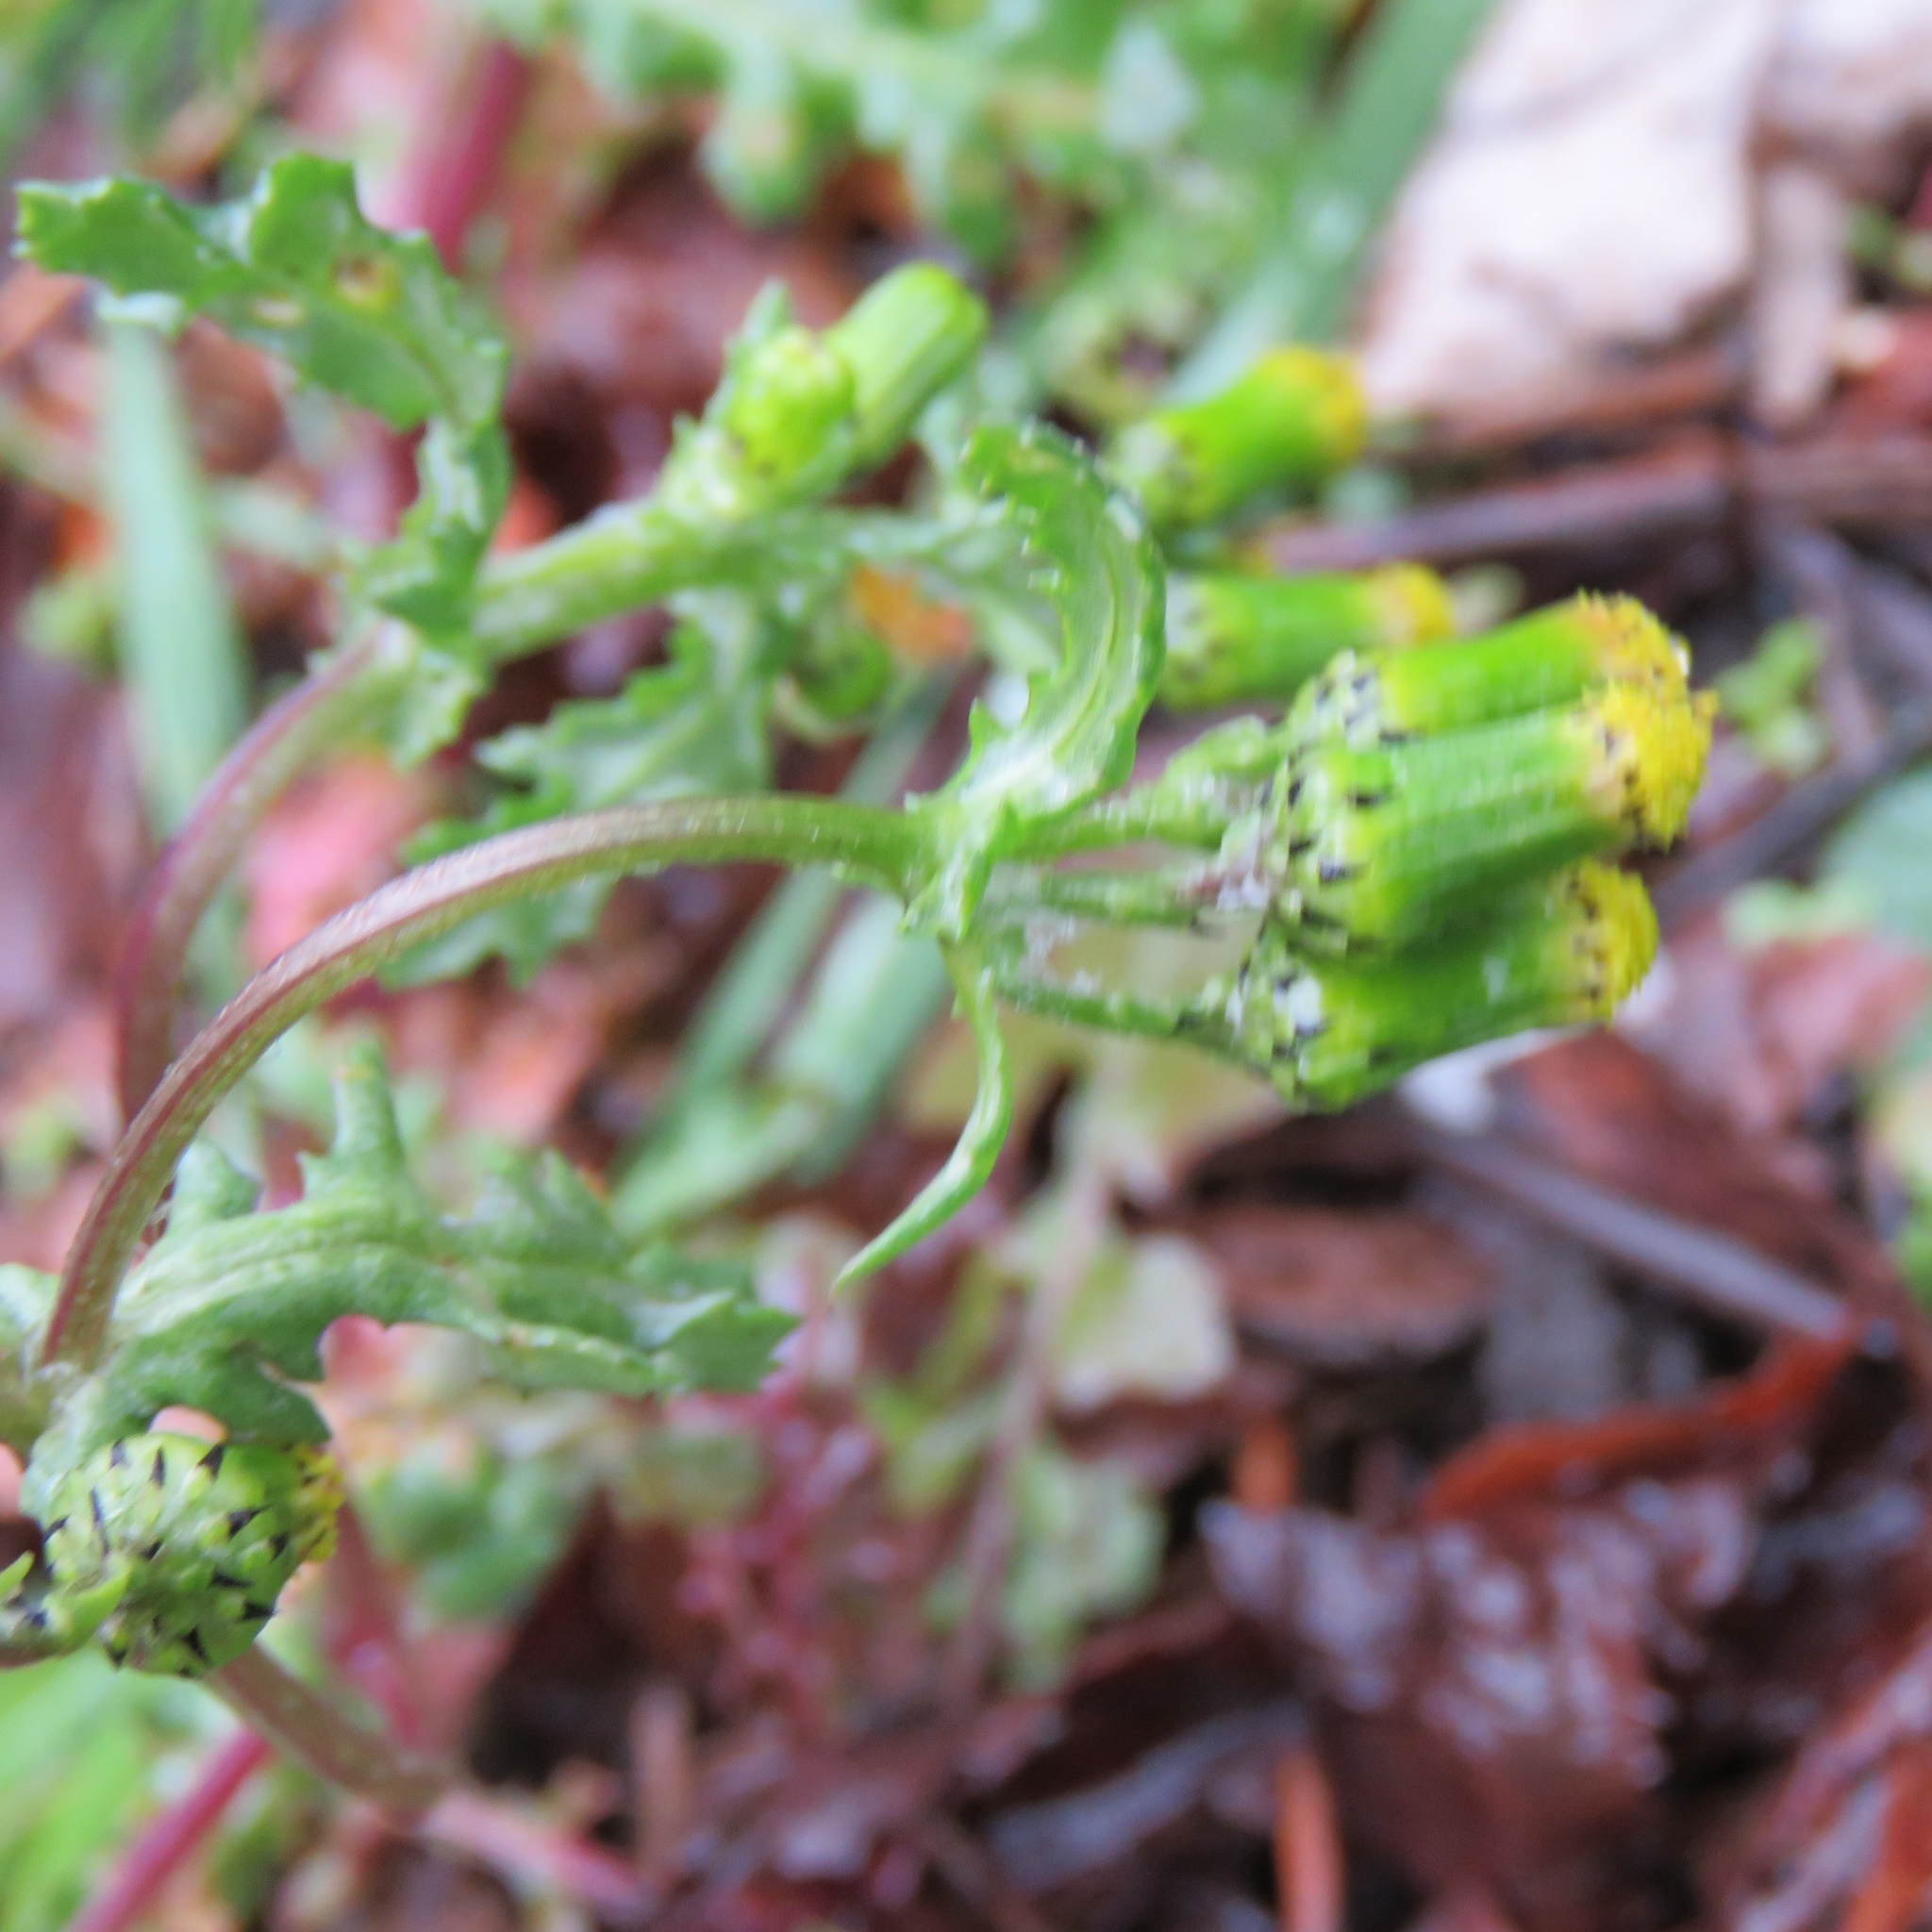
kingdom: Plantae
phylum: Tracheophyta
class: Magnoliopsida
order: Asterales
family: Asteraceae
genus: Senecio
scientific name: Senecio vulgaris
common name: Old-man-in-the-spring
